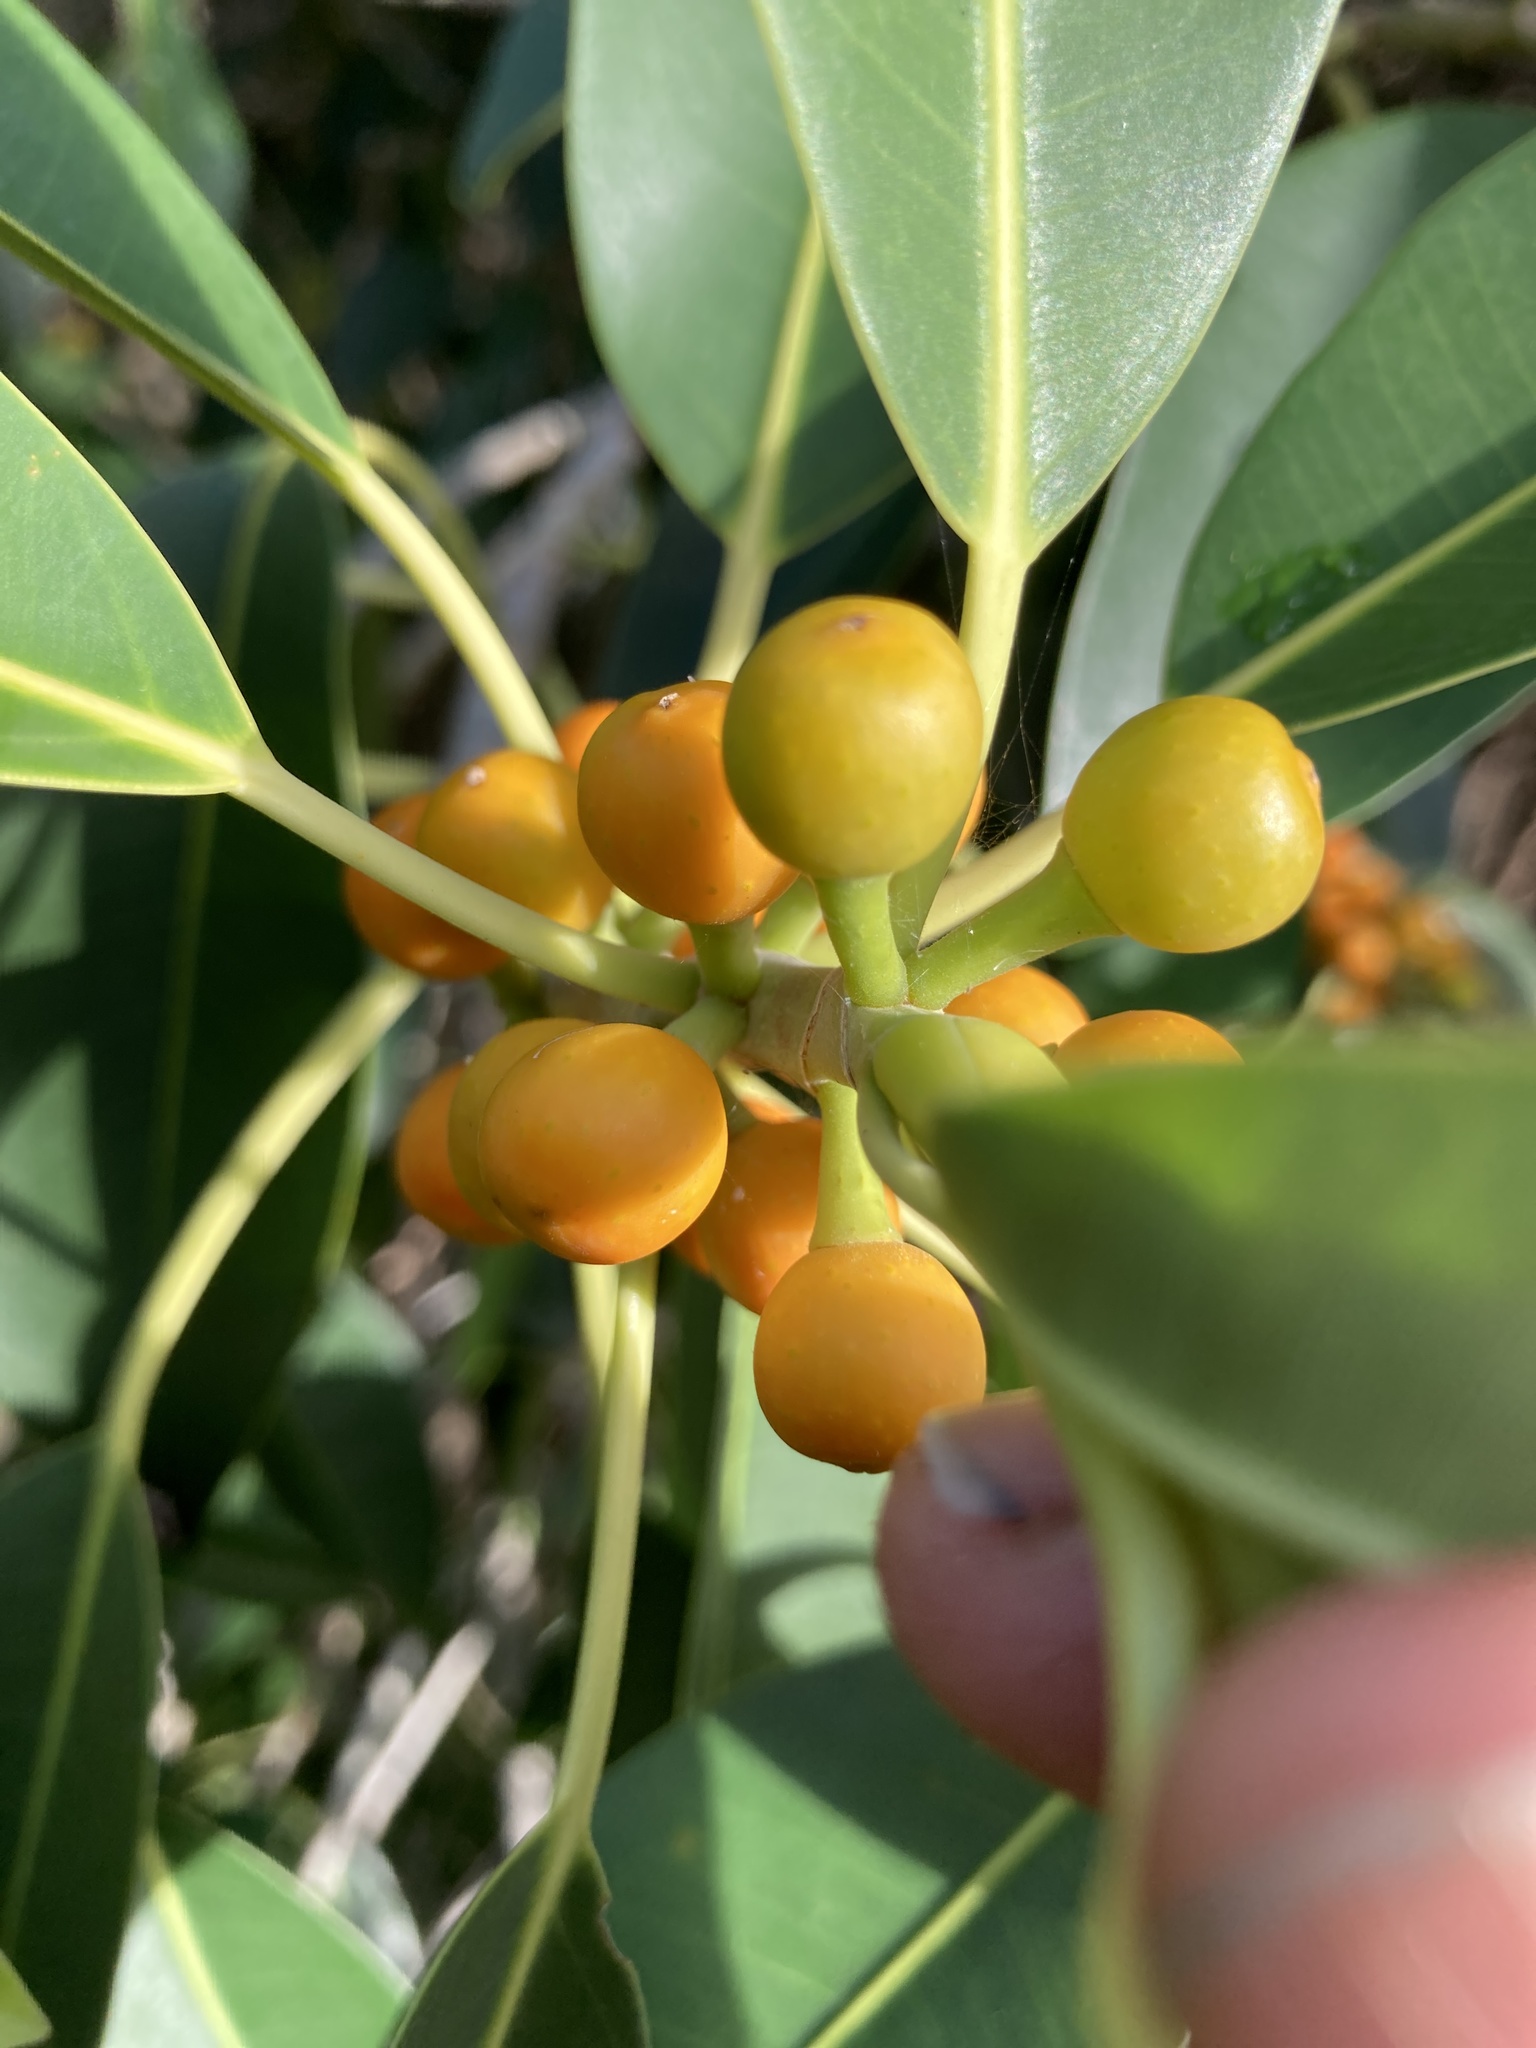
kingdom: Plantae
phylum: Tracheophyta
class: Magnoliopsida
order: Rosales
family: Moraceae
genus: Ficus
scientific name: Ficus rubiginosa
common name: Port jackson fig
